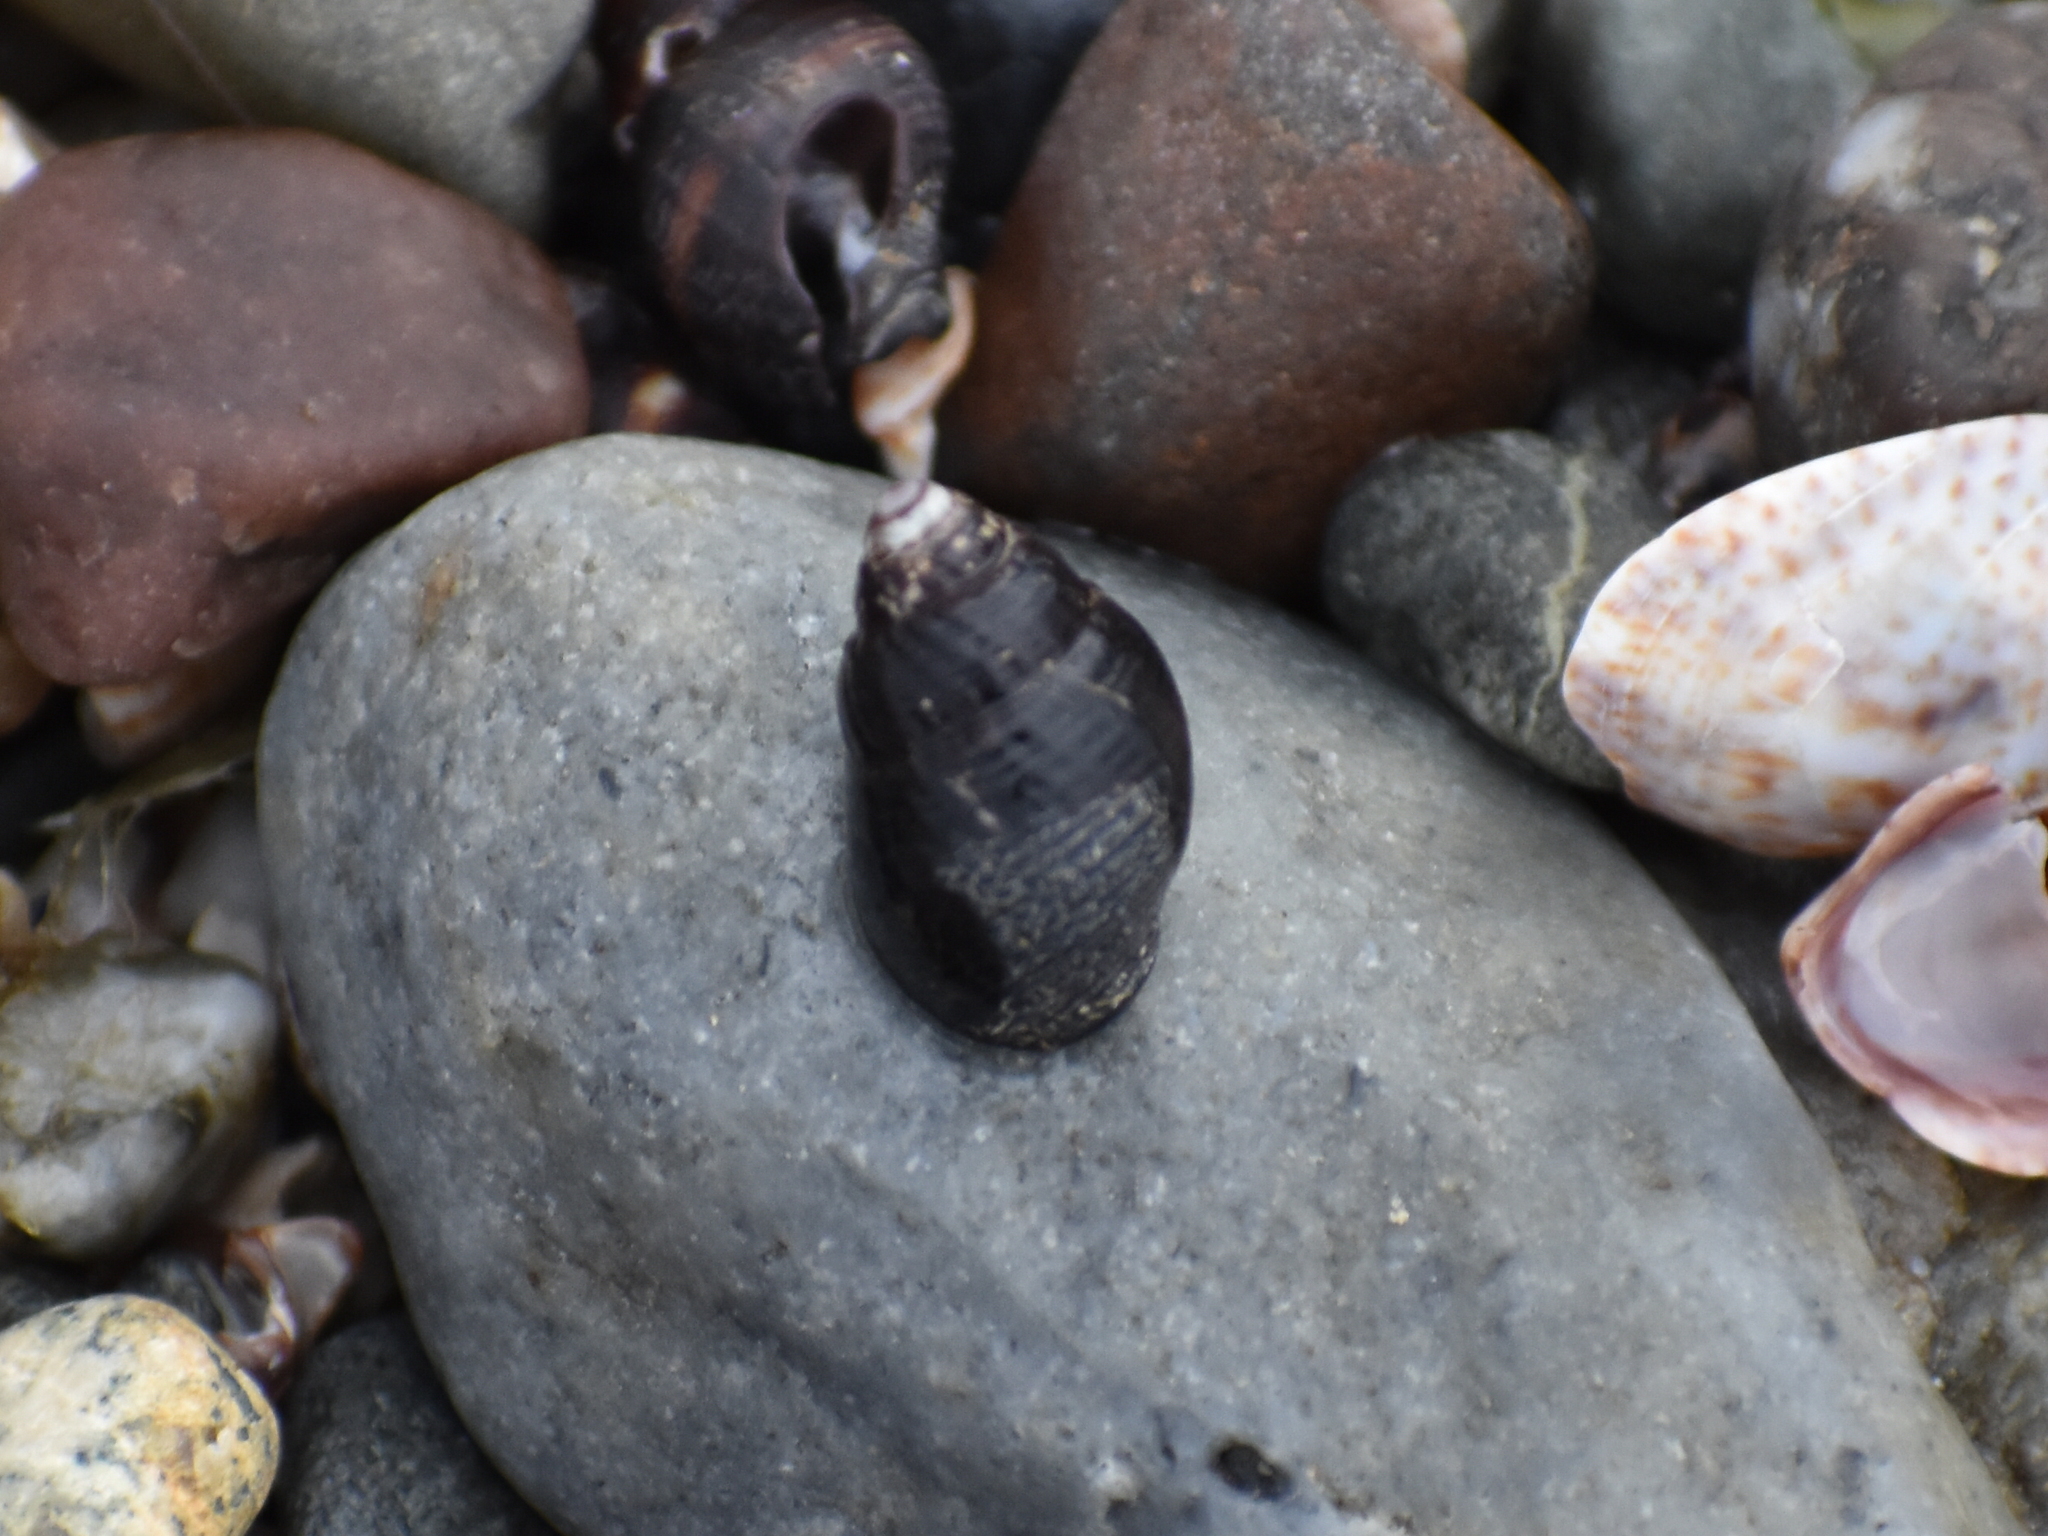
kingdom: Animalia
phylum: Mollusca
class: Gastropoda
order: Neogastropoda
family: Nassariidae
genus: Ilyanassa
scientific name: Ilyanassa obsoleta
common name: Eastern mudsnail
